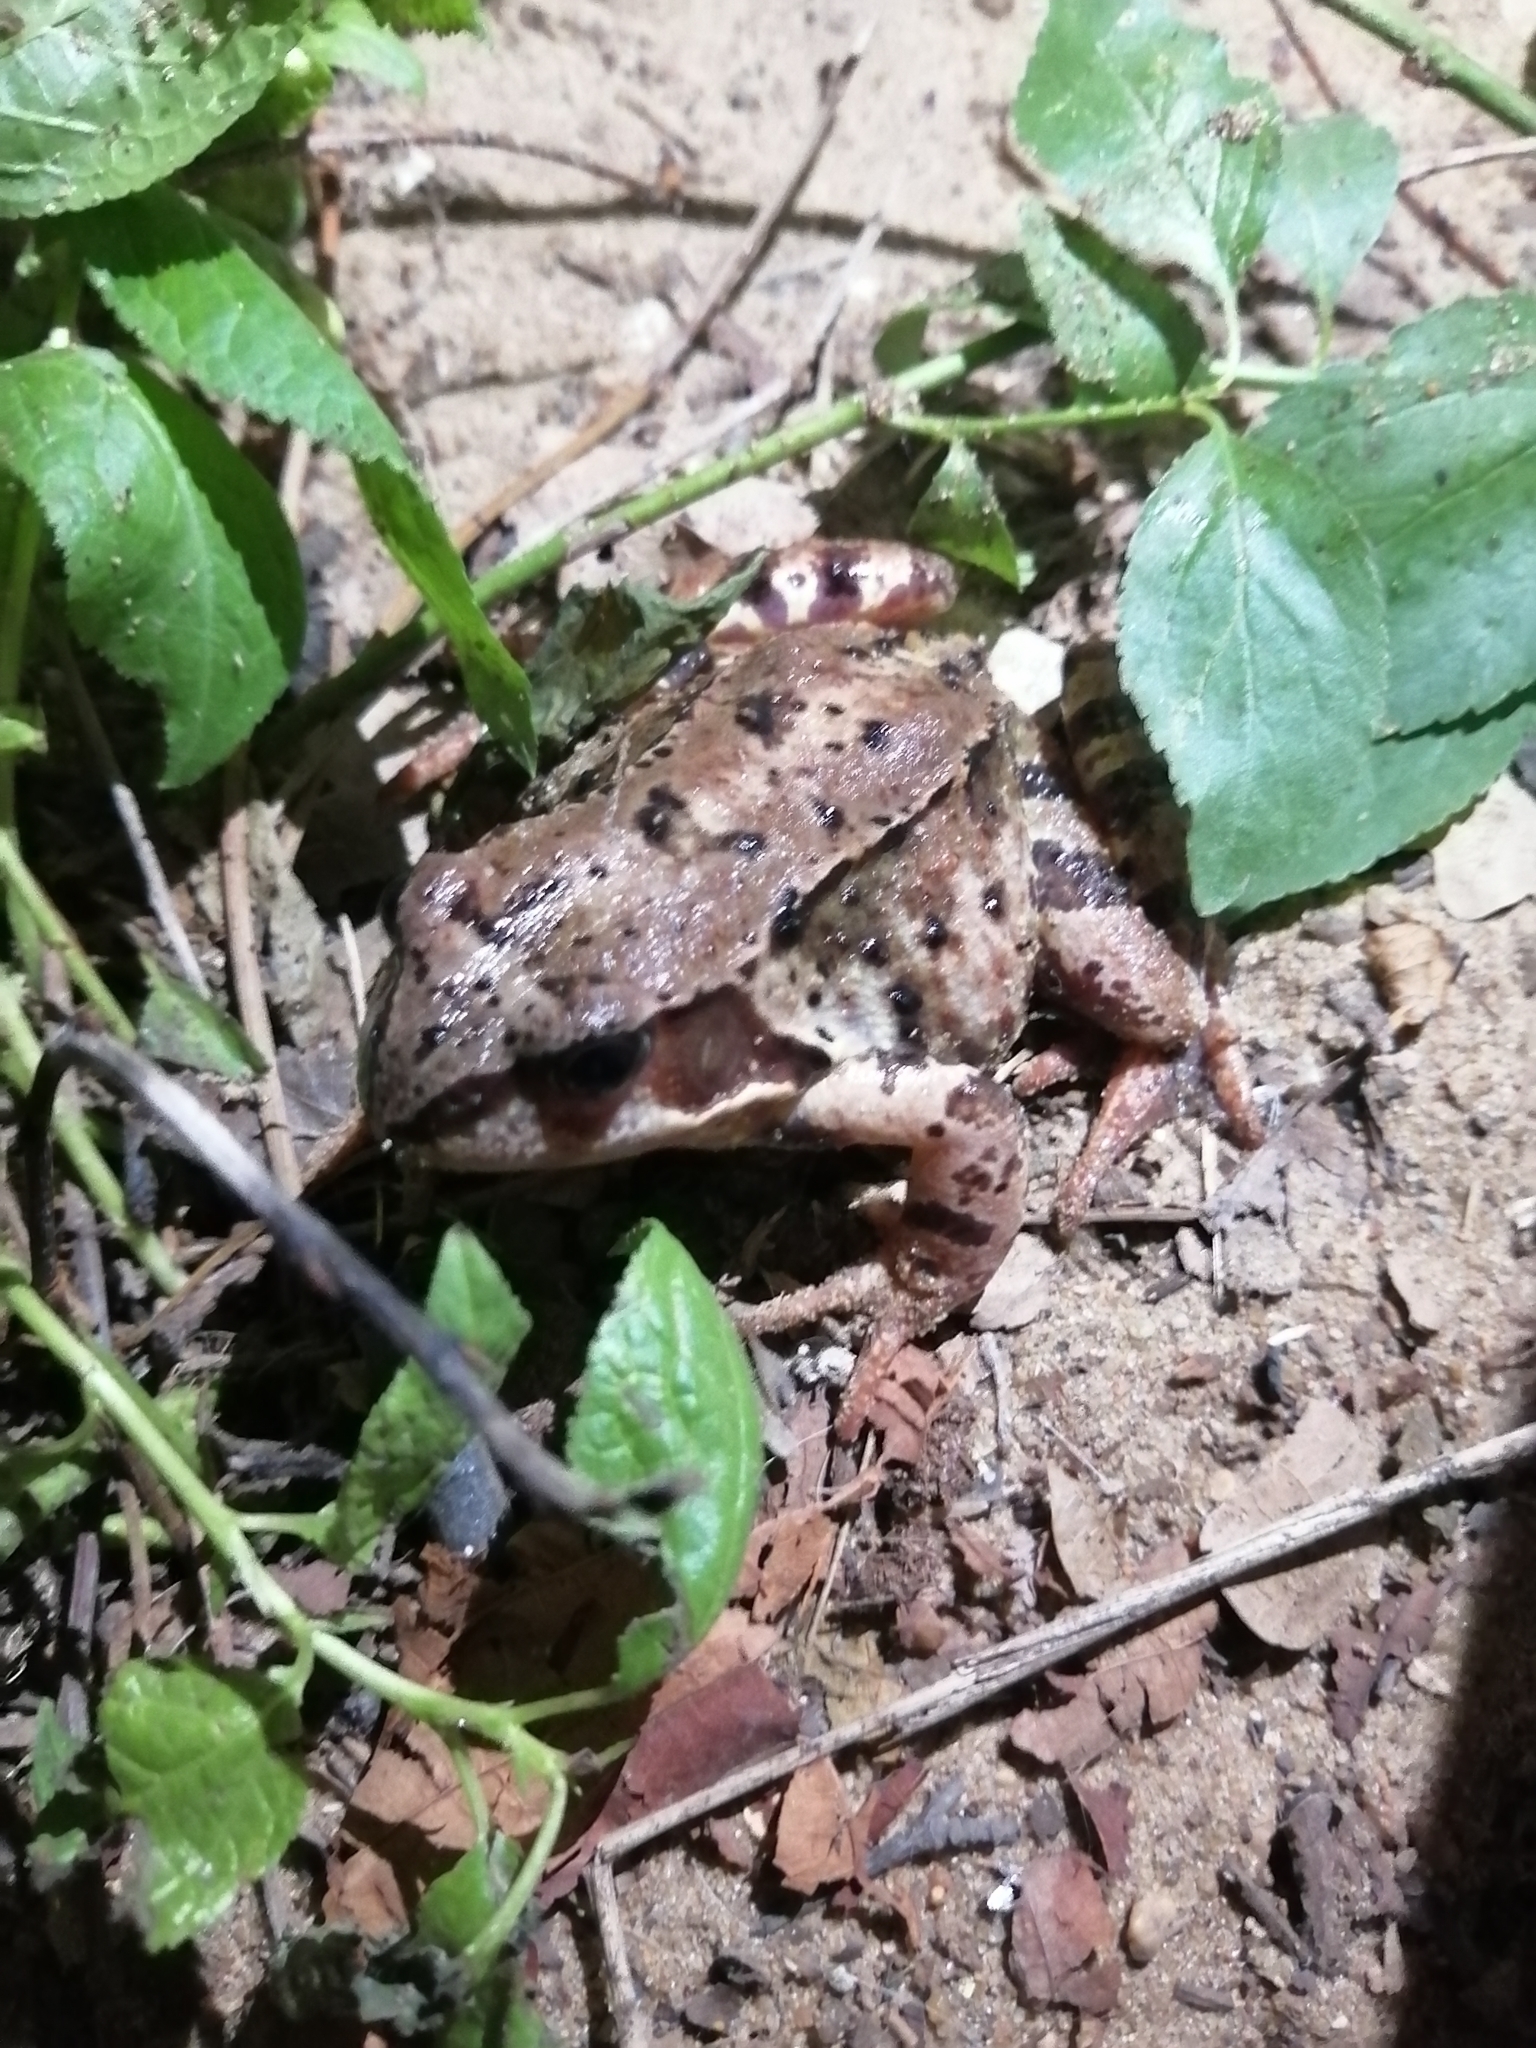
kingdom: Animalia
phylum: Chordata
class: Amphibia
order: Anura
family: Ranidae
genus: Rana
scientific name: Rana temporaria
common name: Common frog
